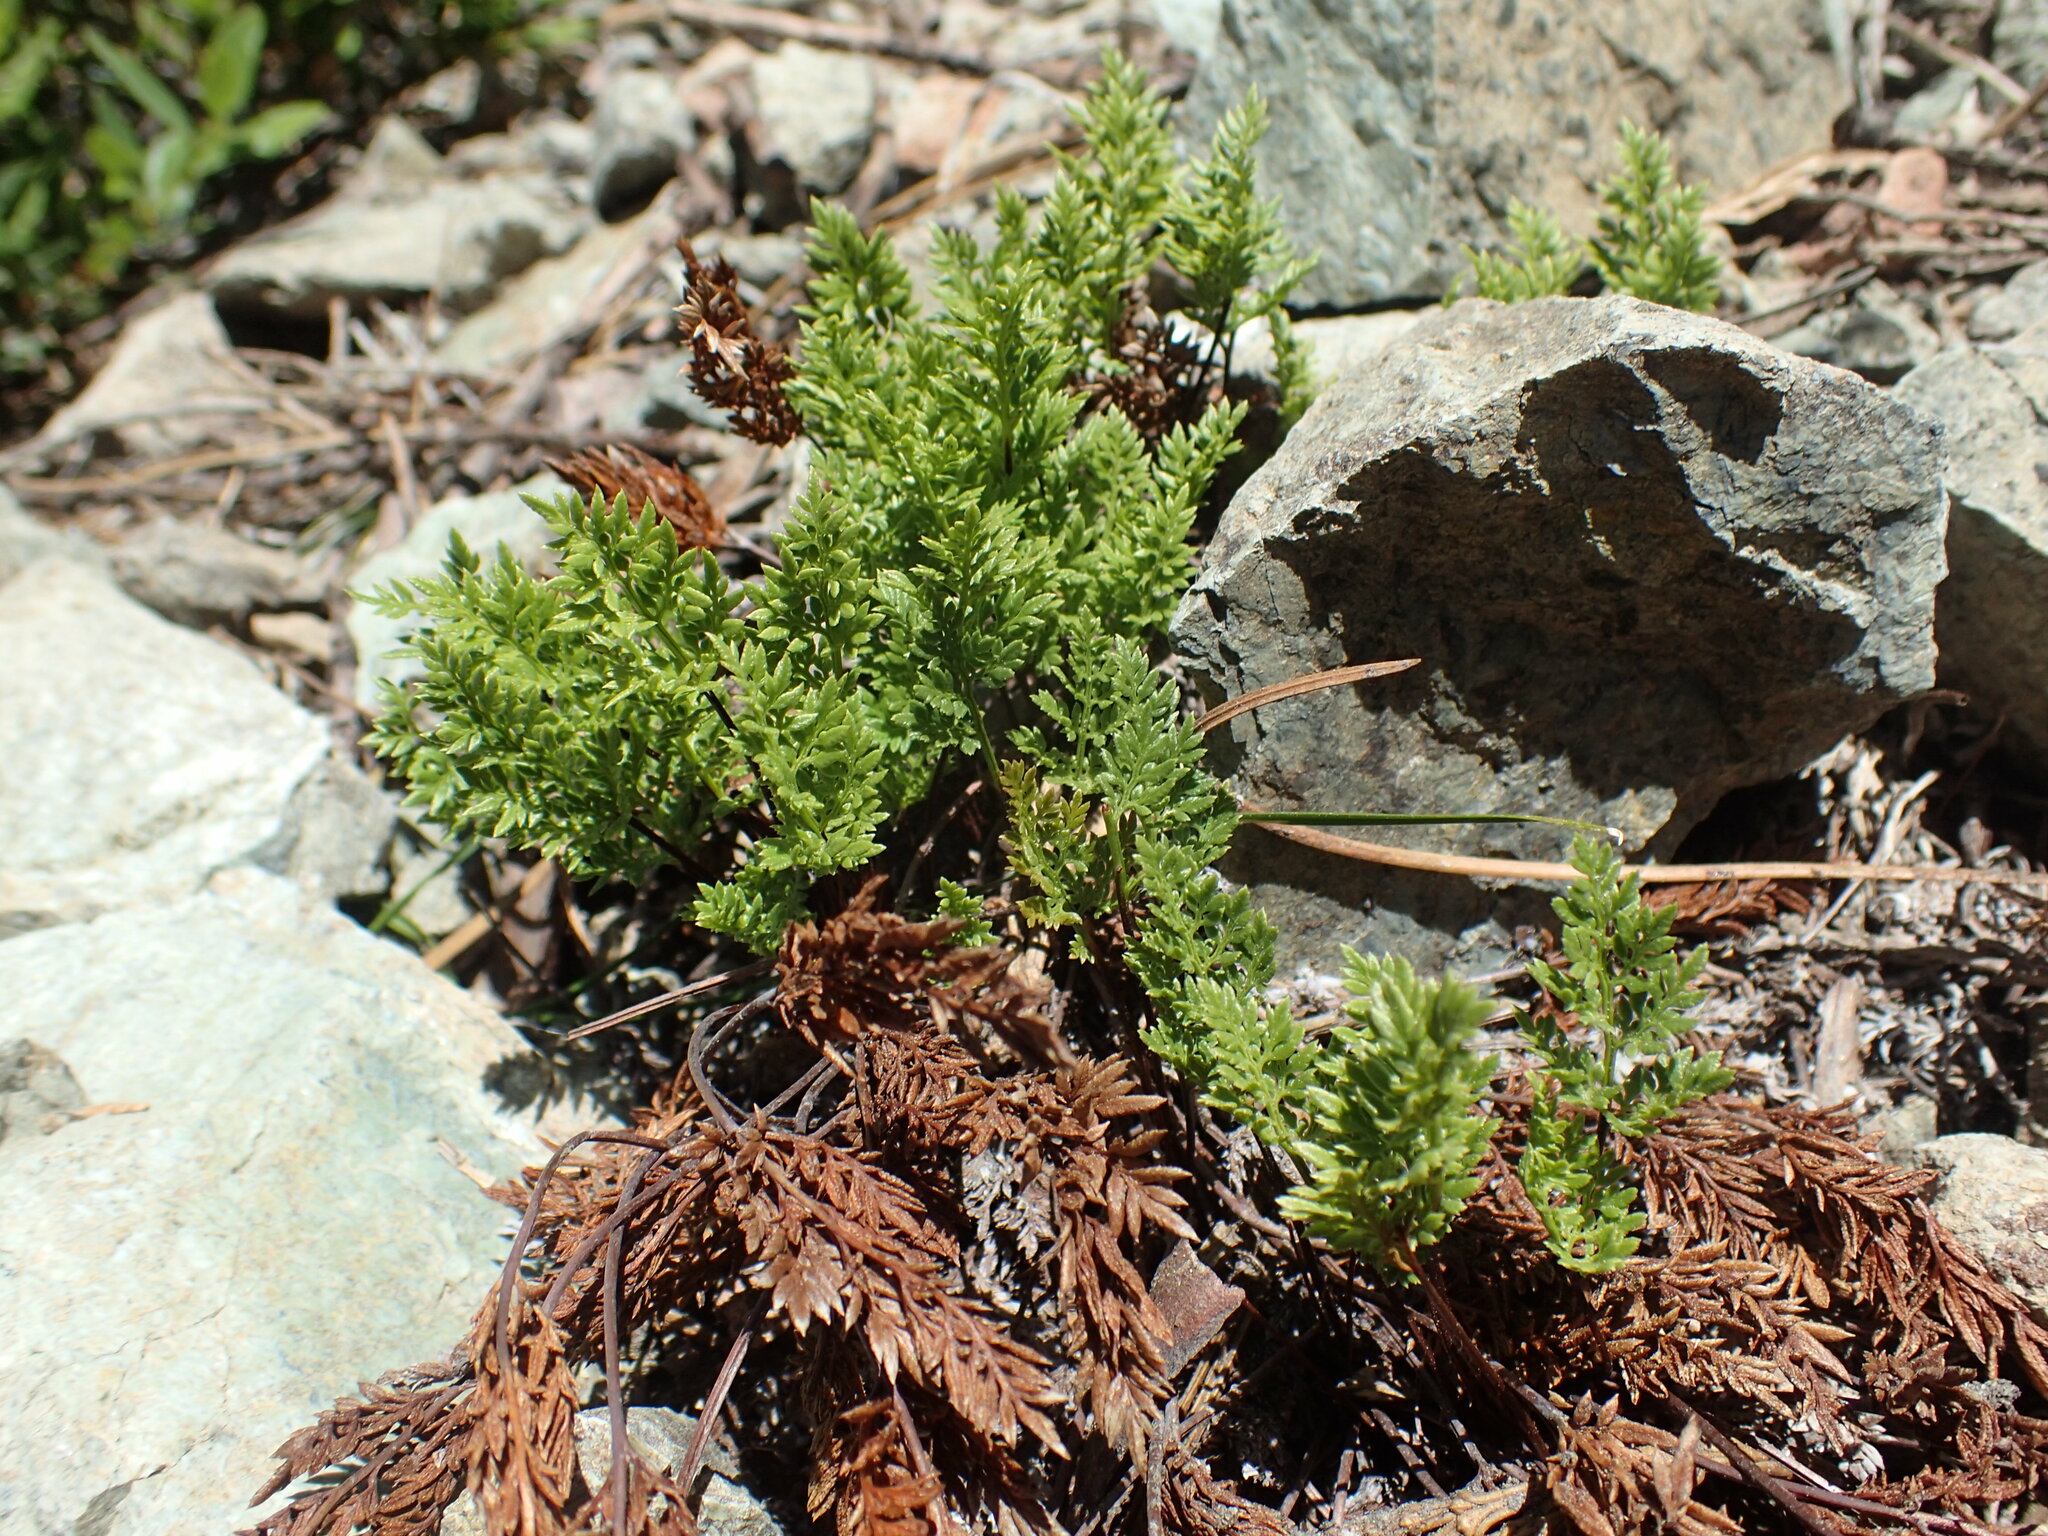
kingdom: Plantae
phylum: Tracheophyta
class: Polypodiopsida
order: Polypodiales
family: Pteridaceae
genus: Aspidotis
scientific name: Aspidotis densa
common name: Indian's dream
